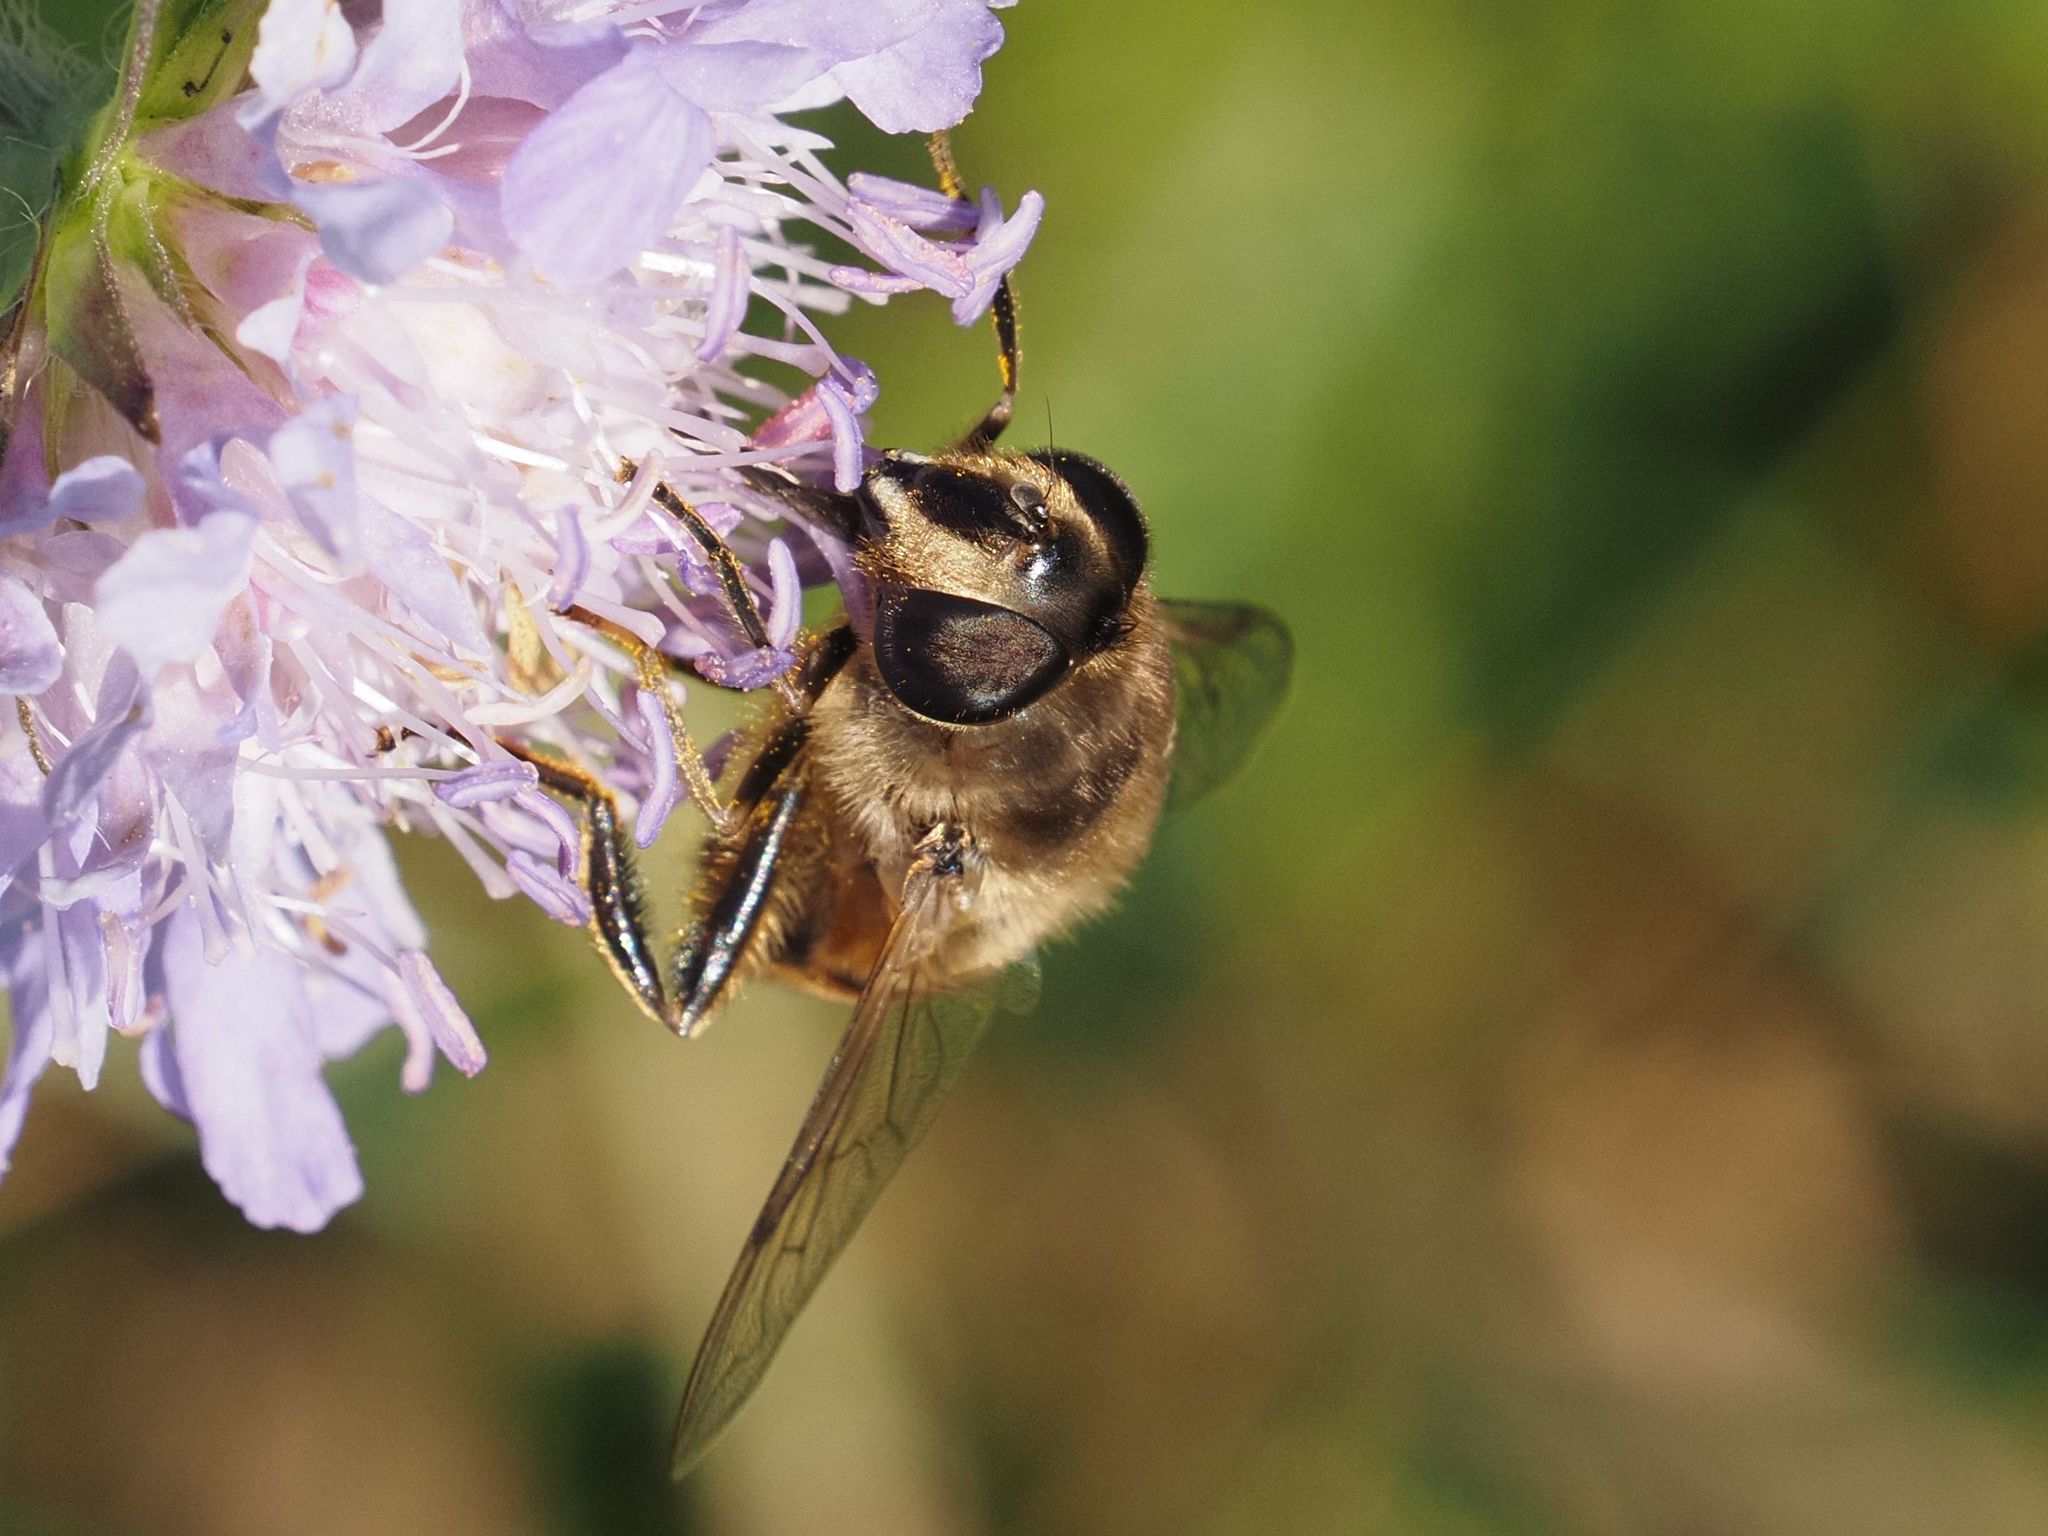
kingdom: Animalia
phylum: Arthropoda
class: Insecta
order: Diptera
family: Syrphidae
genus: Eristalis
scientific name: Eristalis tenax
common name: Drone fly
